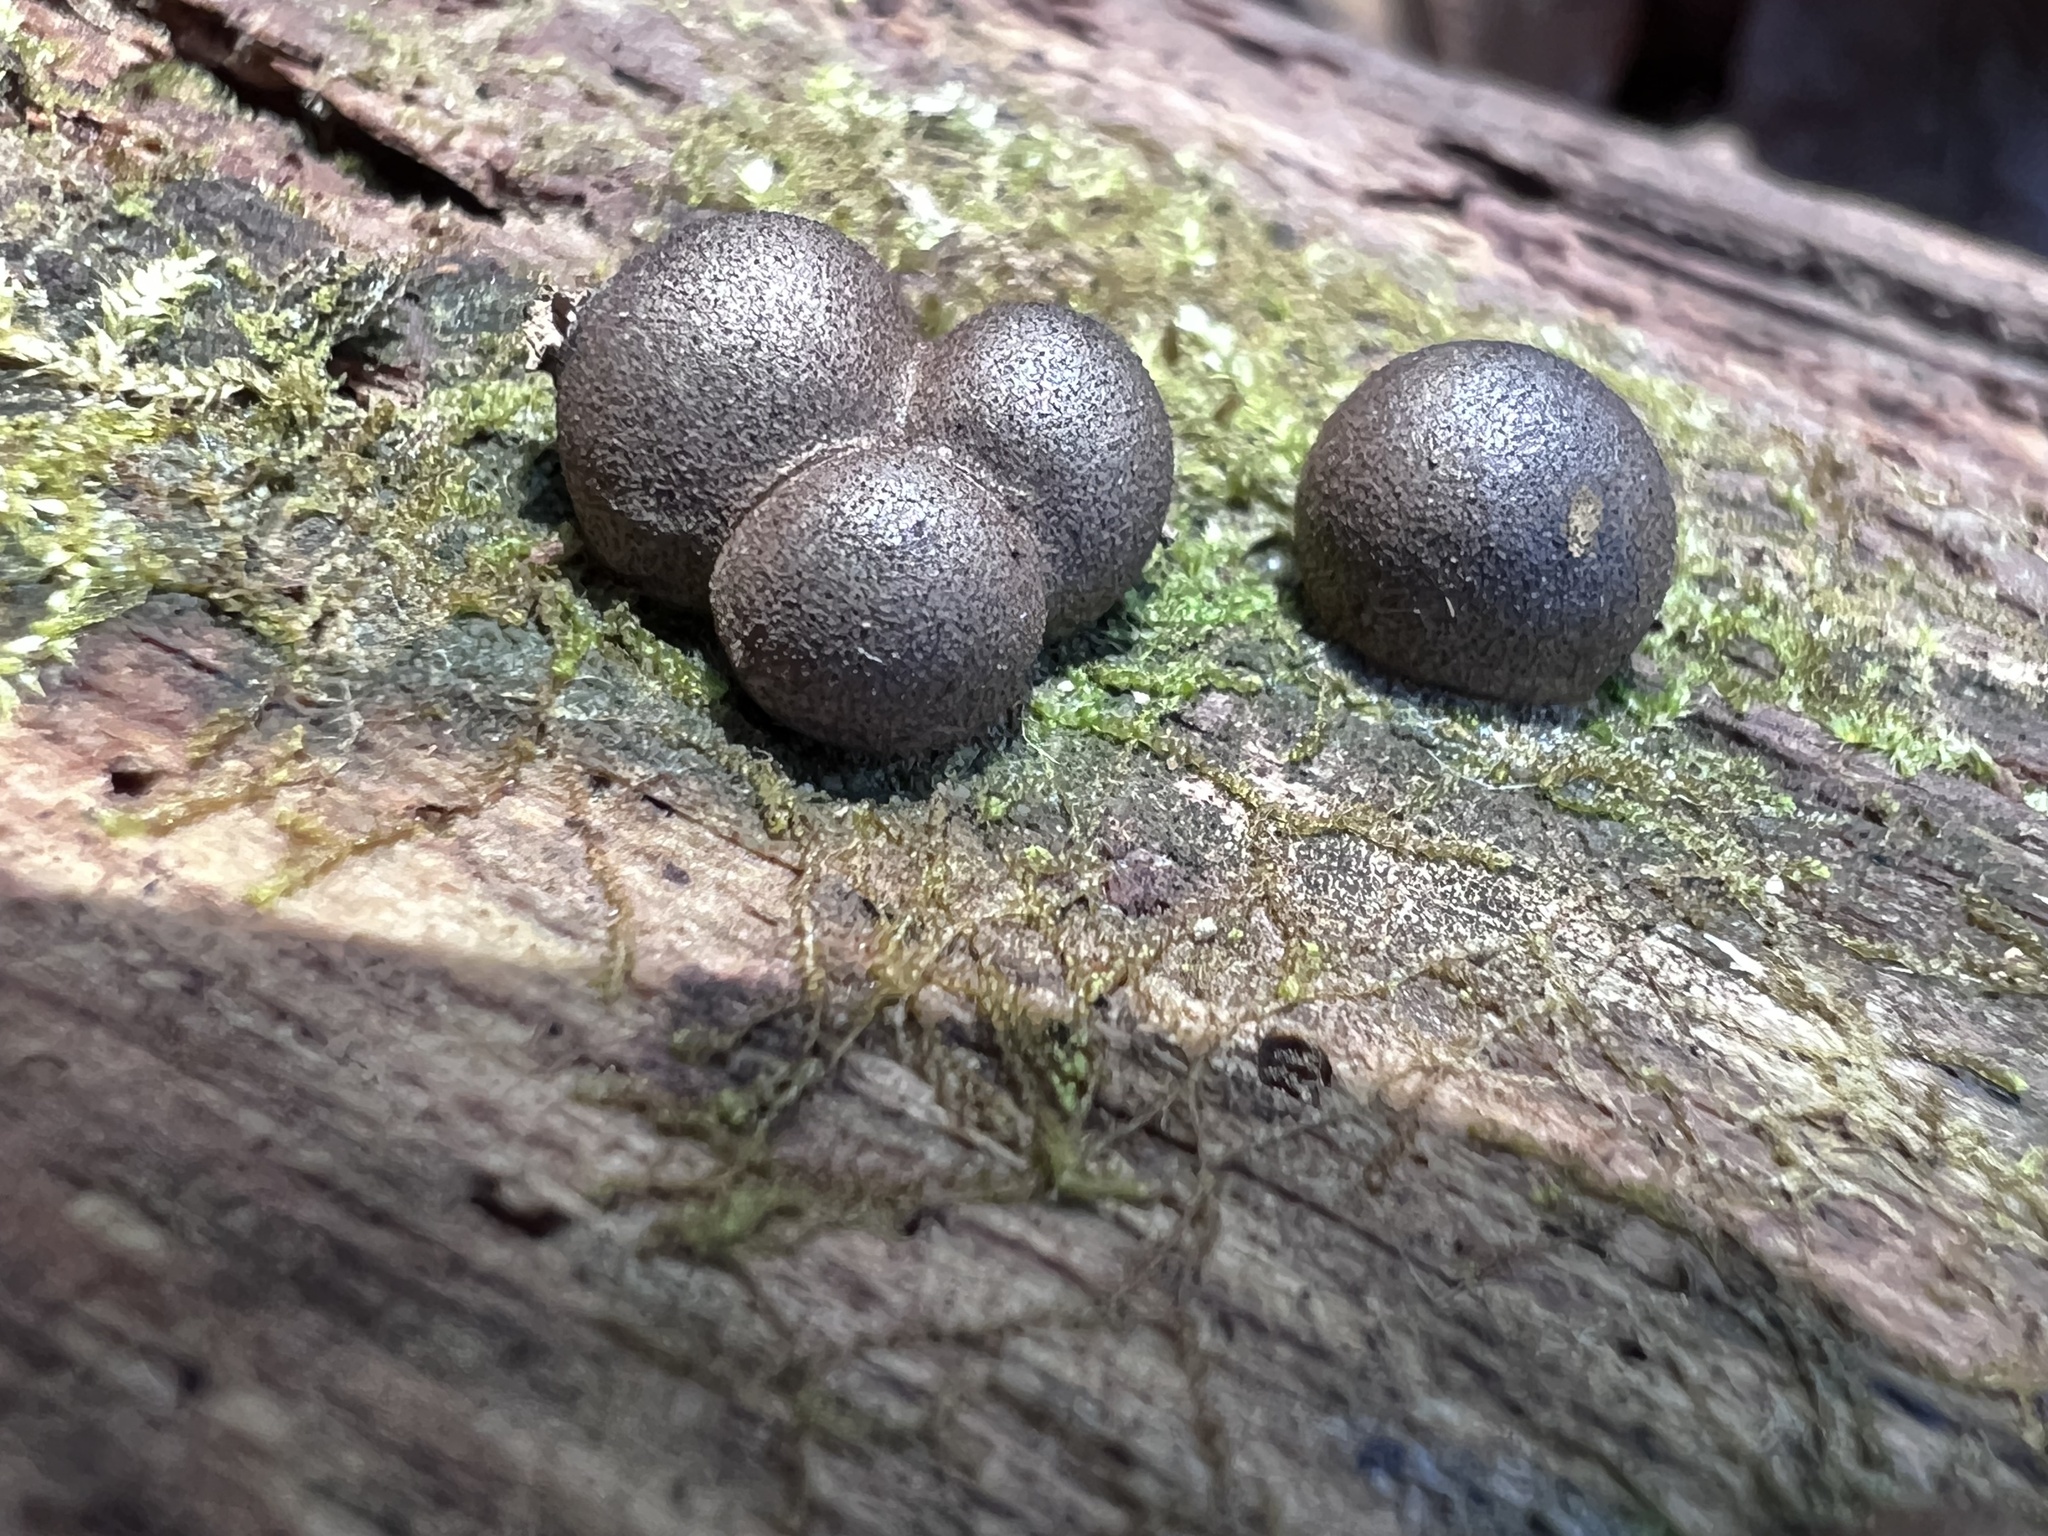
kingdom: Protozoa
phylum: Mycetozoa
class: Myxomycetes
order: Cribrariales
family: Tubiferaceae
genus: Lycogala
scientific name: Lycogala epidendrum
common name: Wolf's milk
